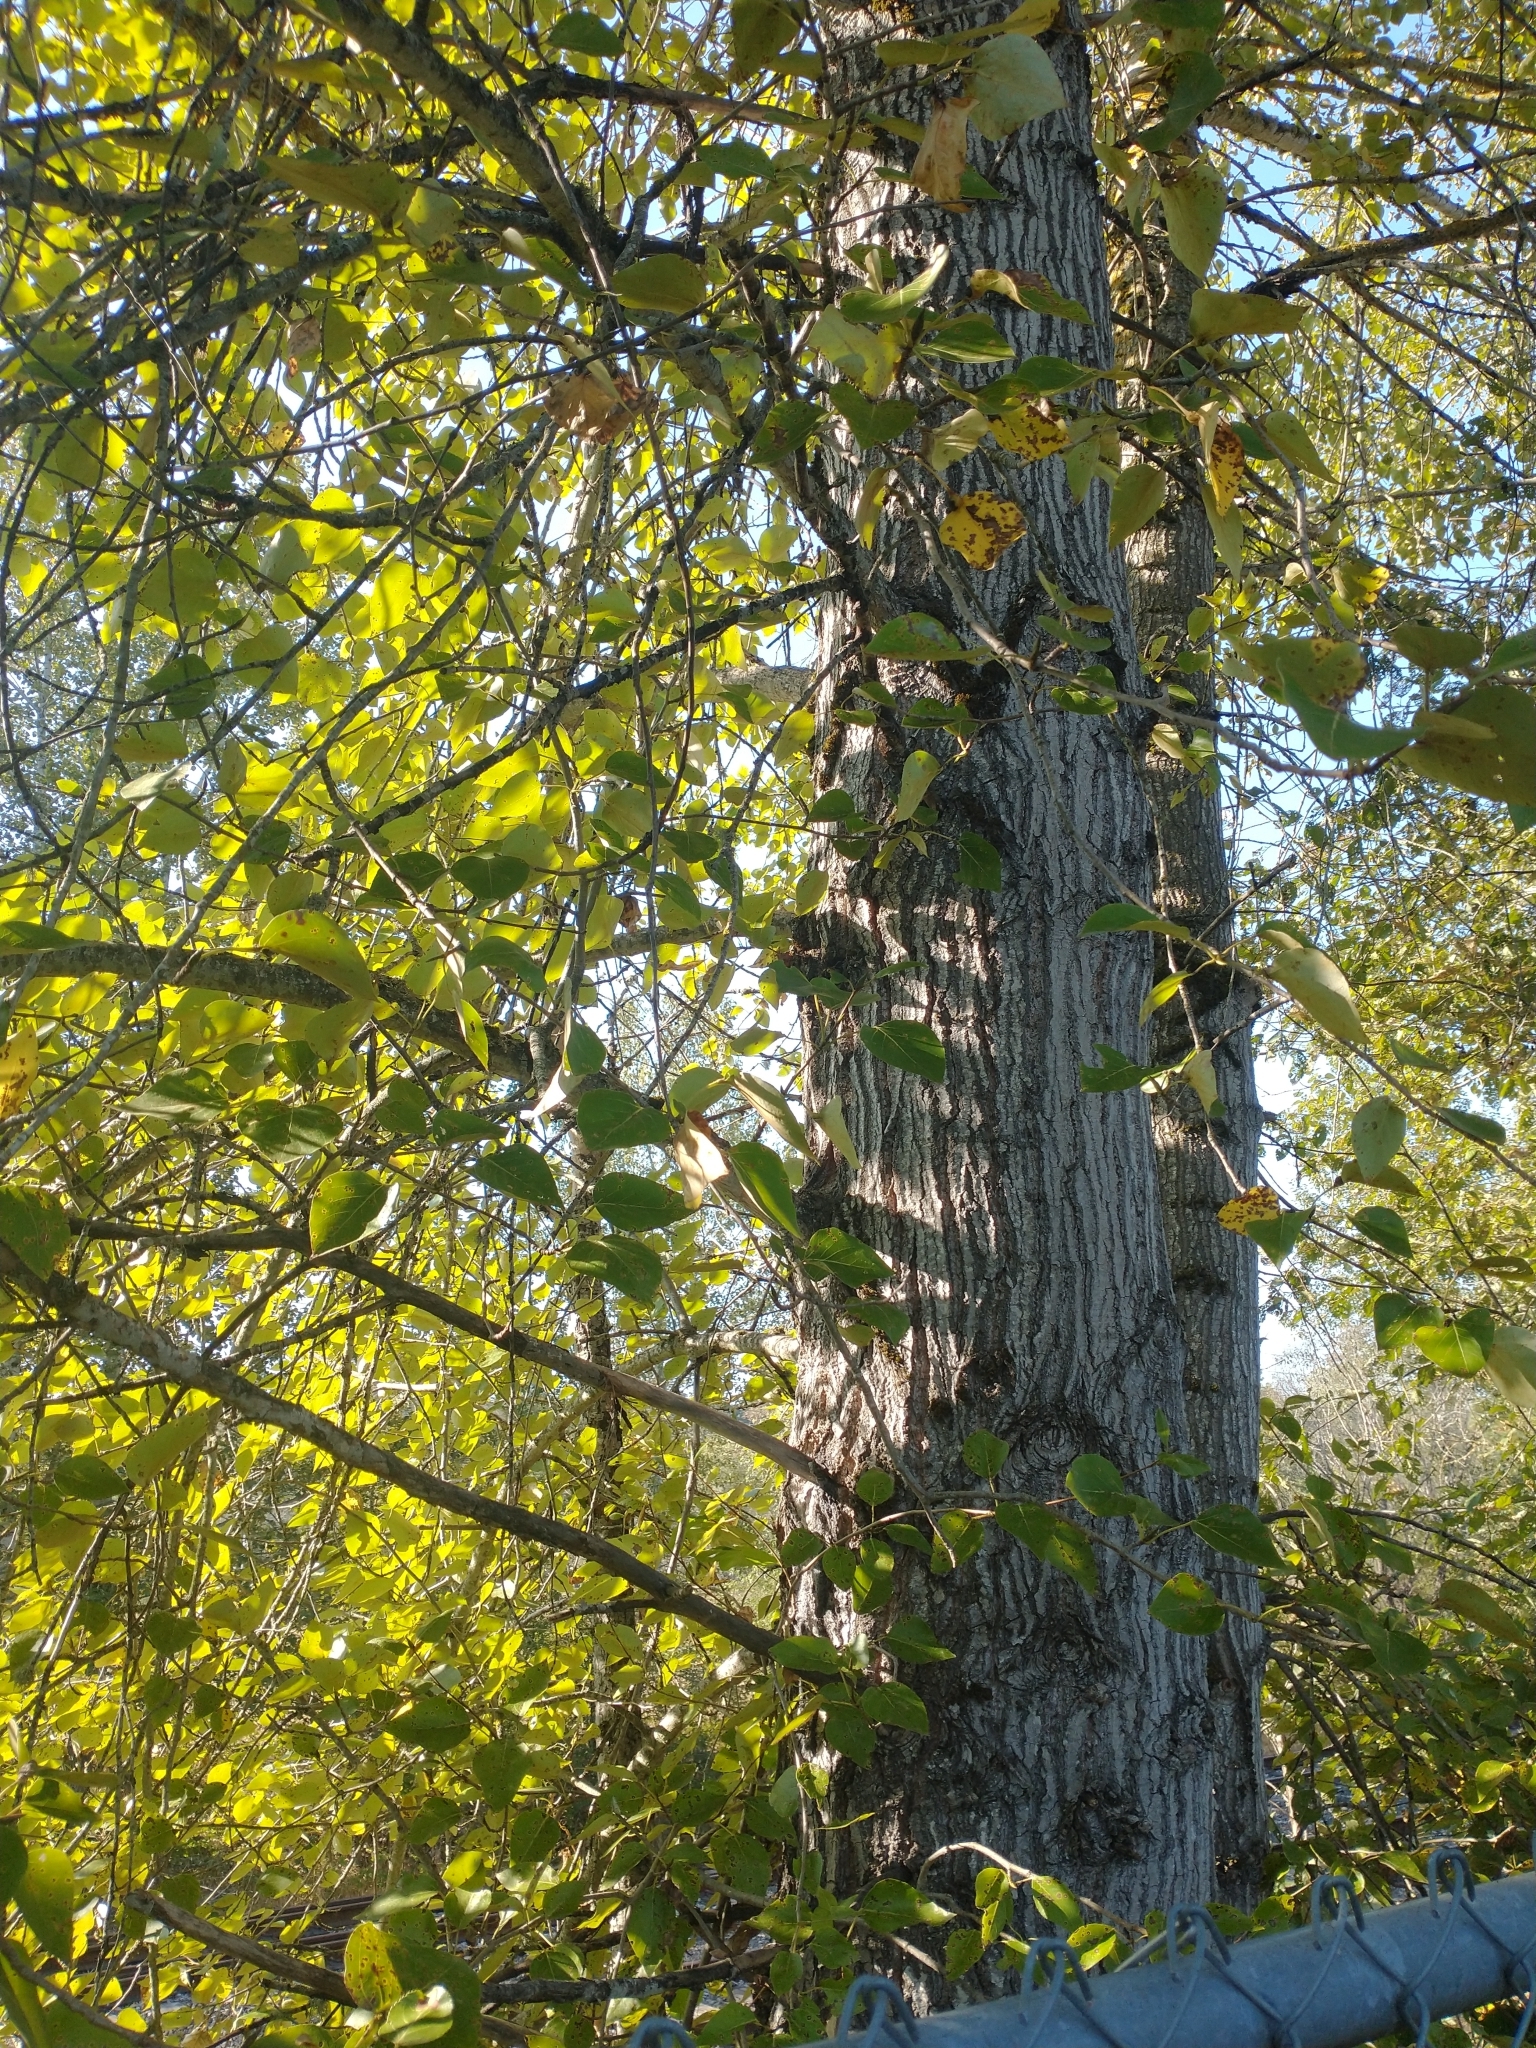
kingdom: Plantae
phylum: Tracheophyta
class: Magnoliopsida
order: Malpighiales
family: Salicaceae
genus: Populus
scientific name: Populus trichocarpa
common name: Black cottonwood
